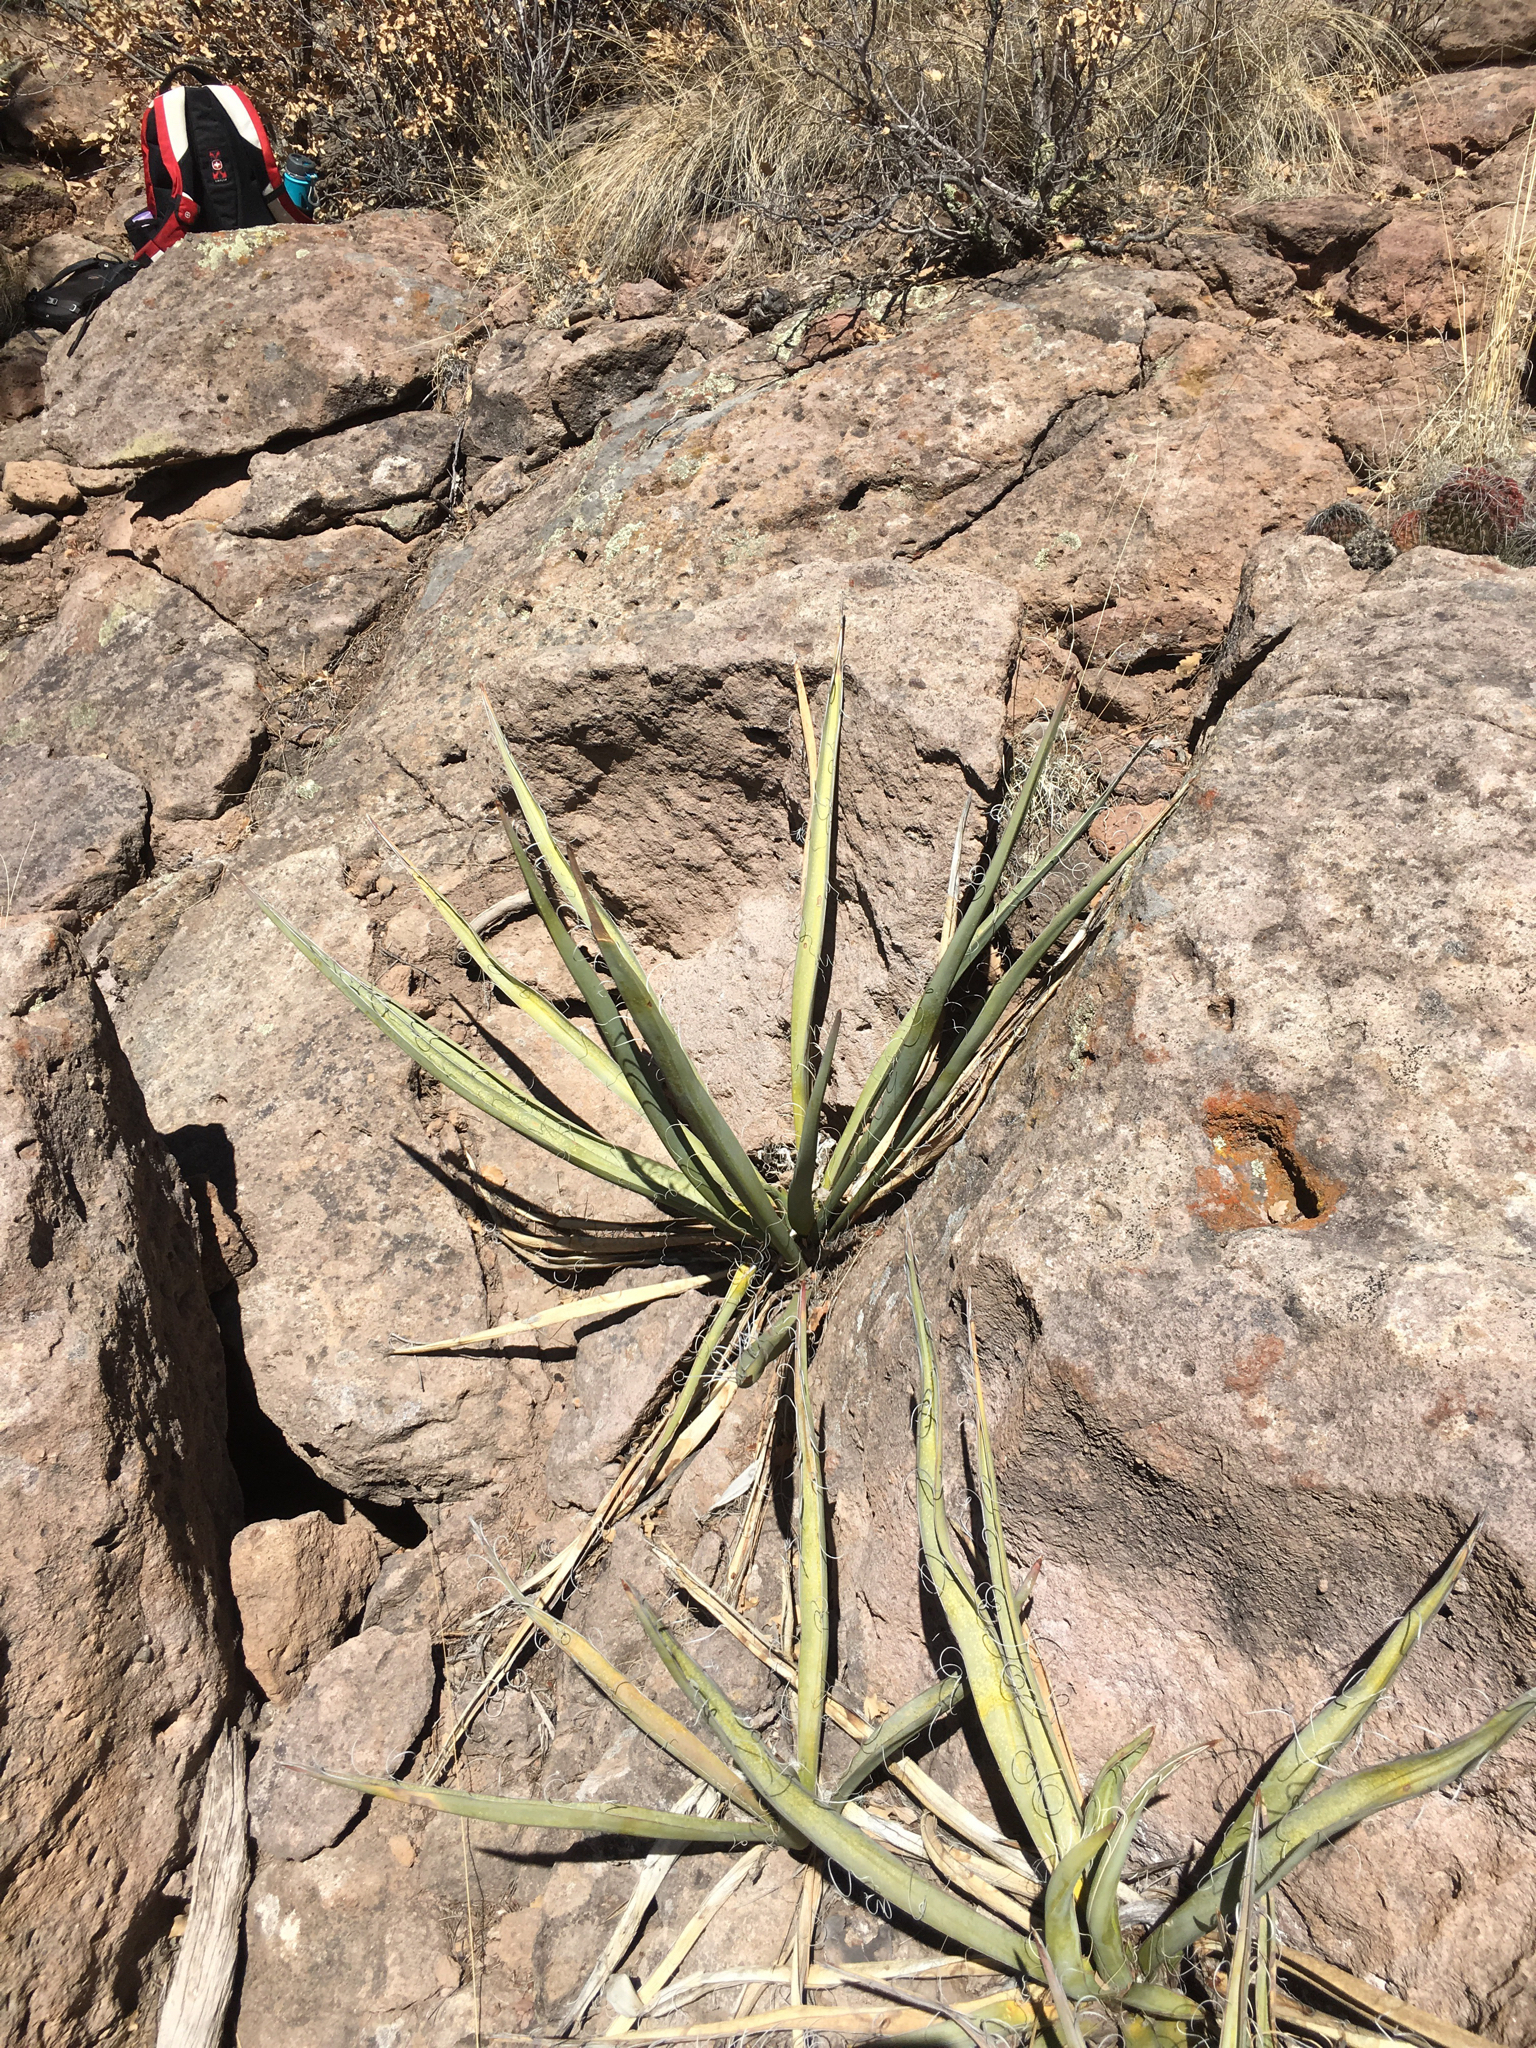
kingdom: Plantae
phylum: Tracheophyta
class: Liliopsida
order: Asparagales
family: Asparagaceae
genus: Yucca
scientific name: Yucca baccata
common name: Banana yucca
